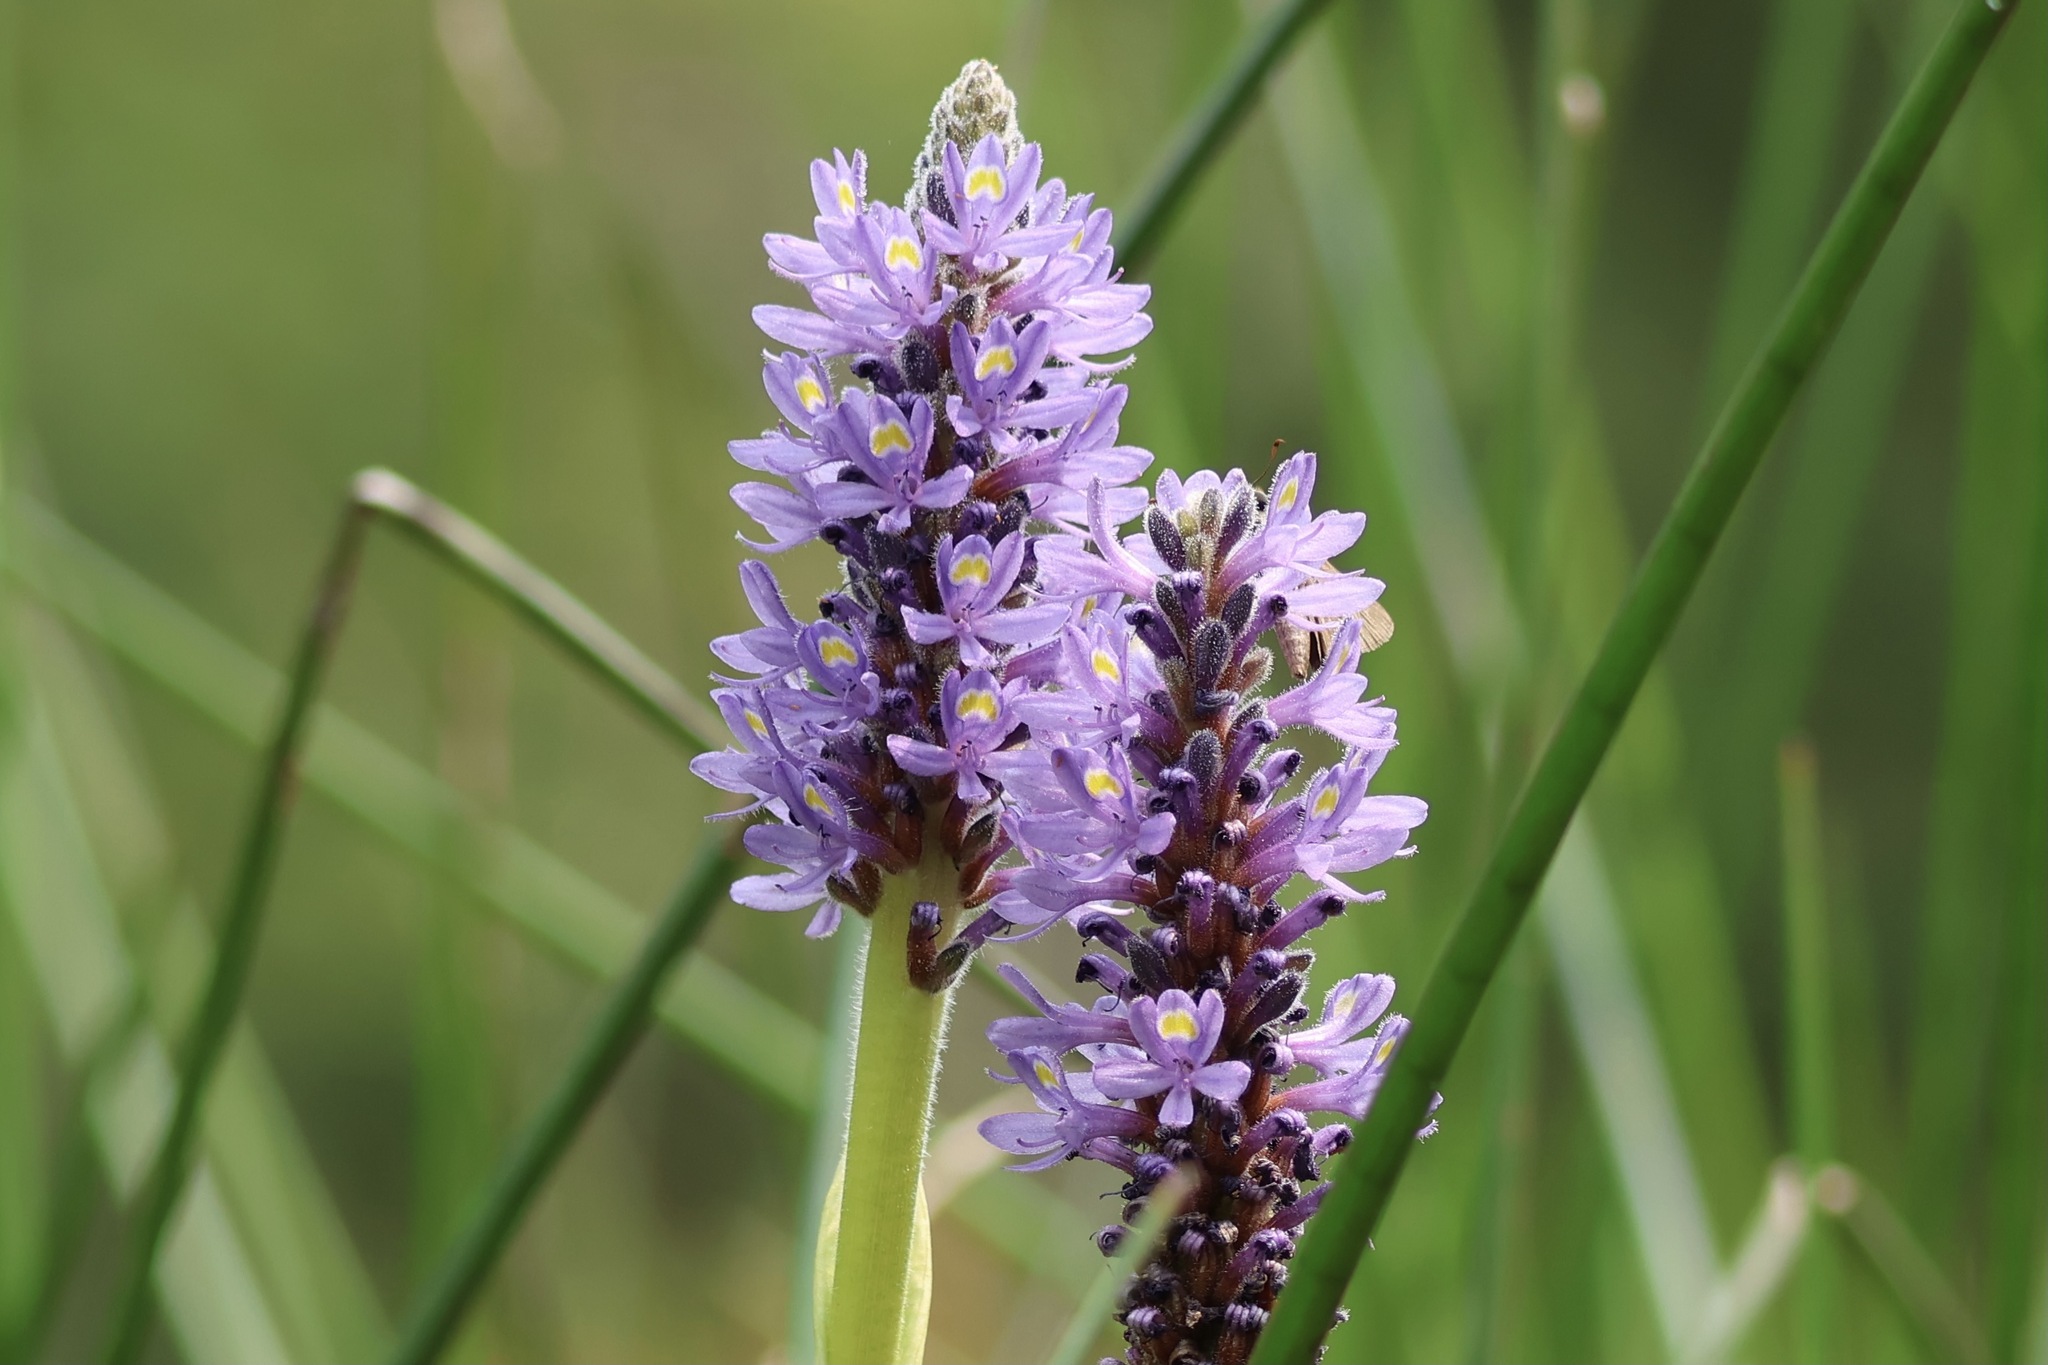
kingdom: Plantae
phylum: Tracheophyta
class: Liliopsida
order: Commelinales
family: Pontederiaceae
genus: Pontederia
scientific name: Pontederia cordata
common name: Pickerelweed
